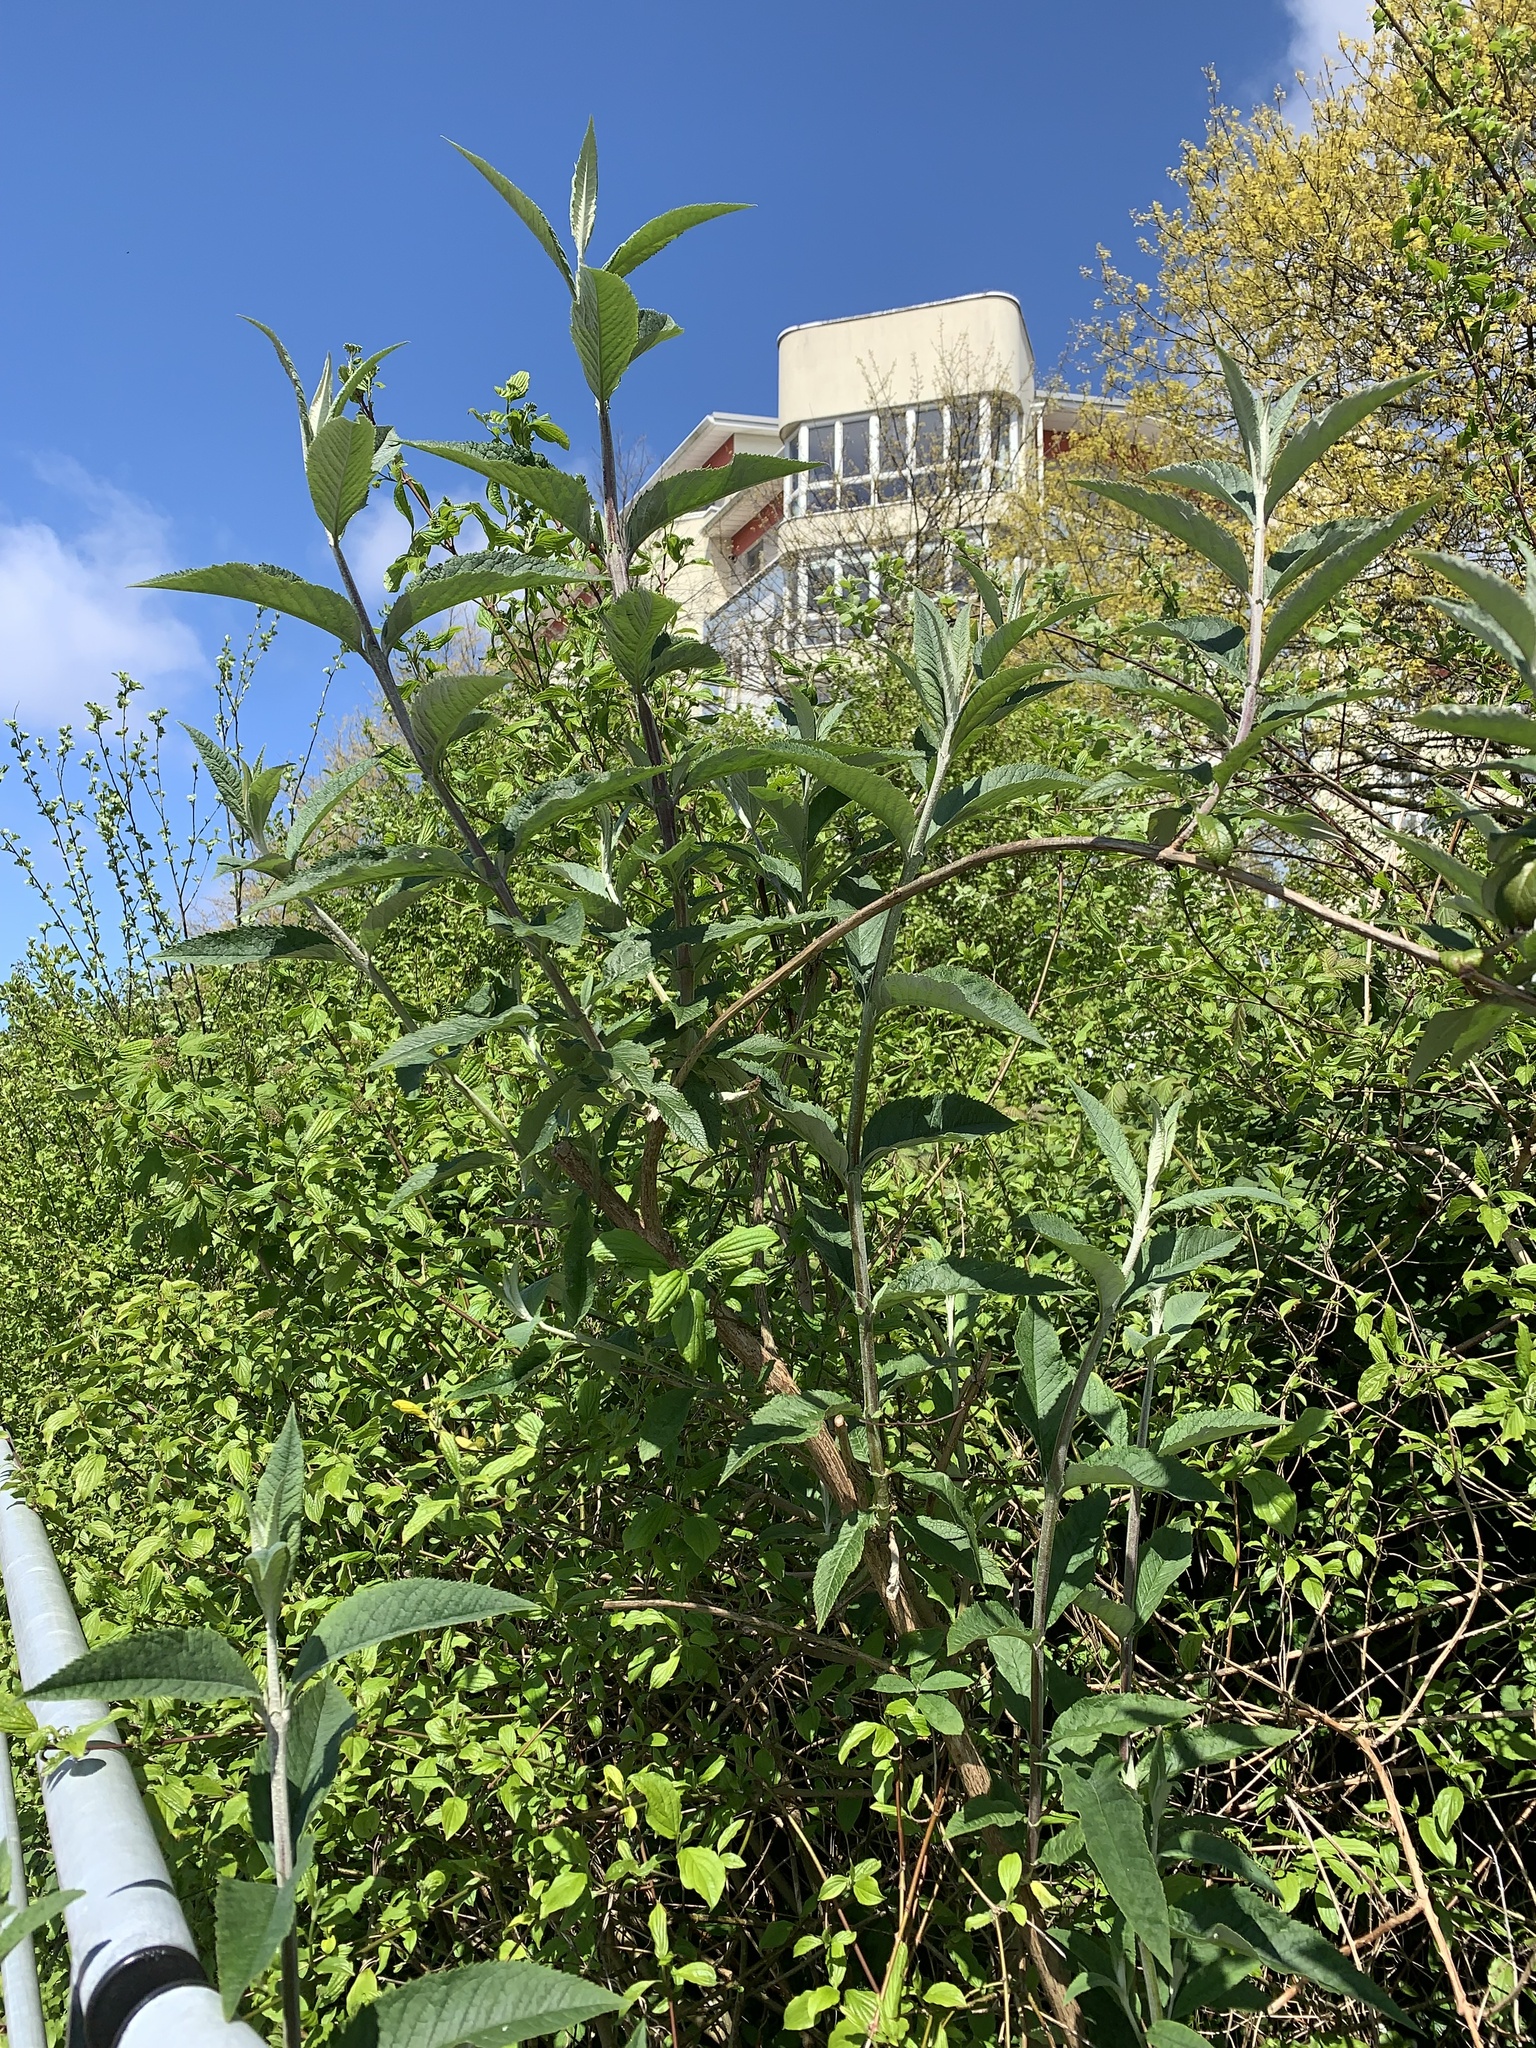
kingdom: Plantae
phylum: Tracheophyta
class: Magnoliopsida
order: Lamiales
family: Scrophulariaceae
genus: Buddleja
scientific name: Buddleja davidii
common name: Butterfly-bush
